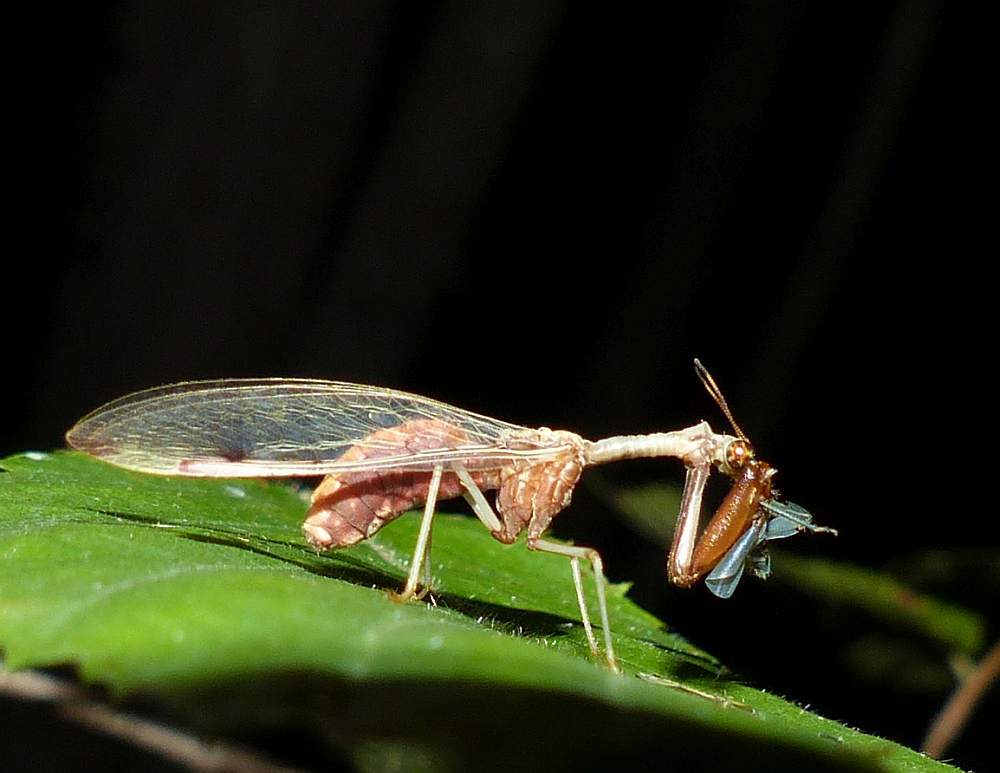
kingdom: Animalia
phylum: Arthropoda
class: Insecta
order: Neuroptera
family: Mantispidae
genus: Dicromantispa
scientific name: Dicromantispa interrupta
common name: Four-spotted mantidfly
